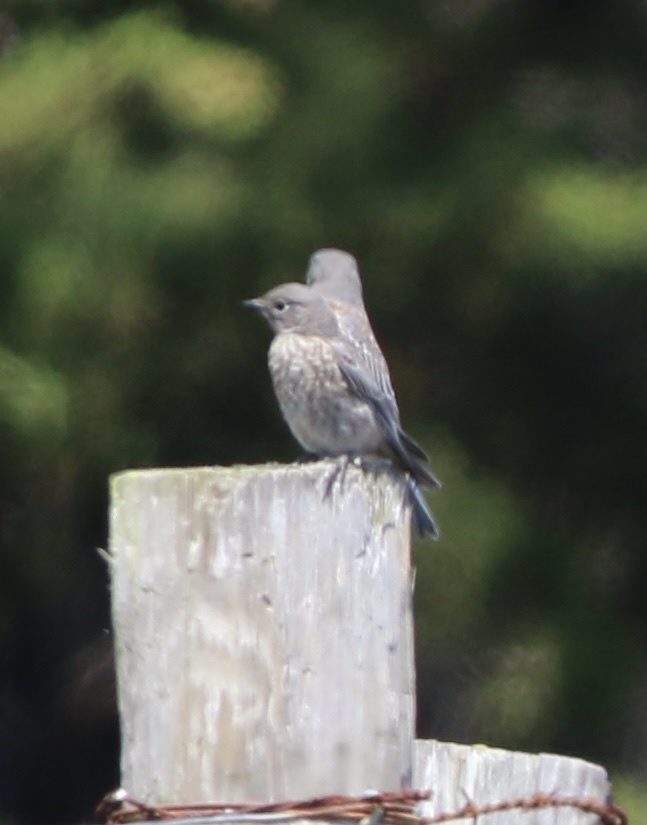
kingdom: Animalia
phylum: Chordata
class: Aves
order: Passeriformes
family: Turdidae
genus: Sialia
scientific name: Sialia mexicana
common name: Western bluebird
